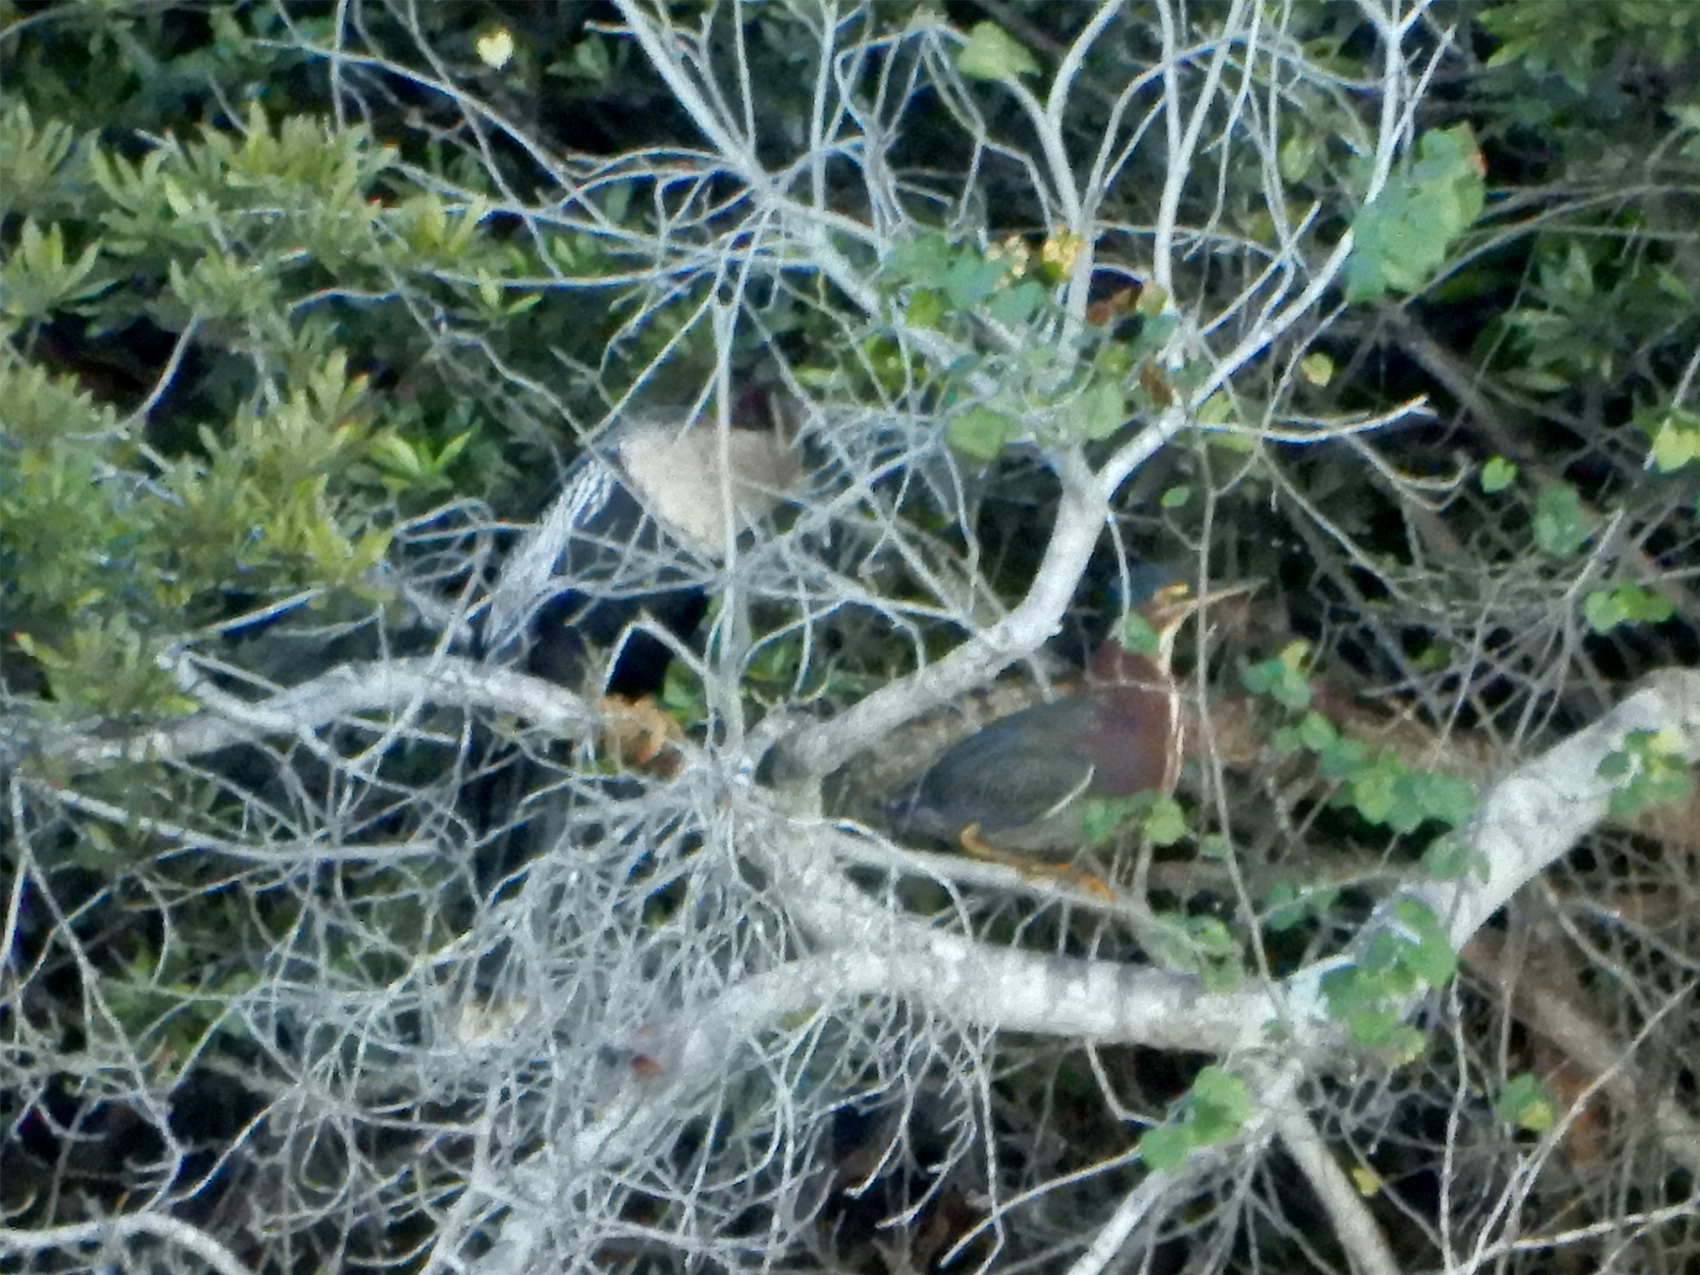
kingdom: Animalia
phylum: Chordata
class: Aves
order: Pelecaniformes
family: Ardeidae
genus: Butorides
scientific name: Butorides virescens
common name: Green heron
